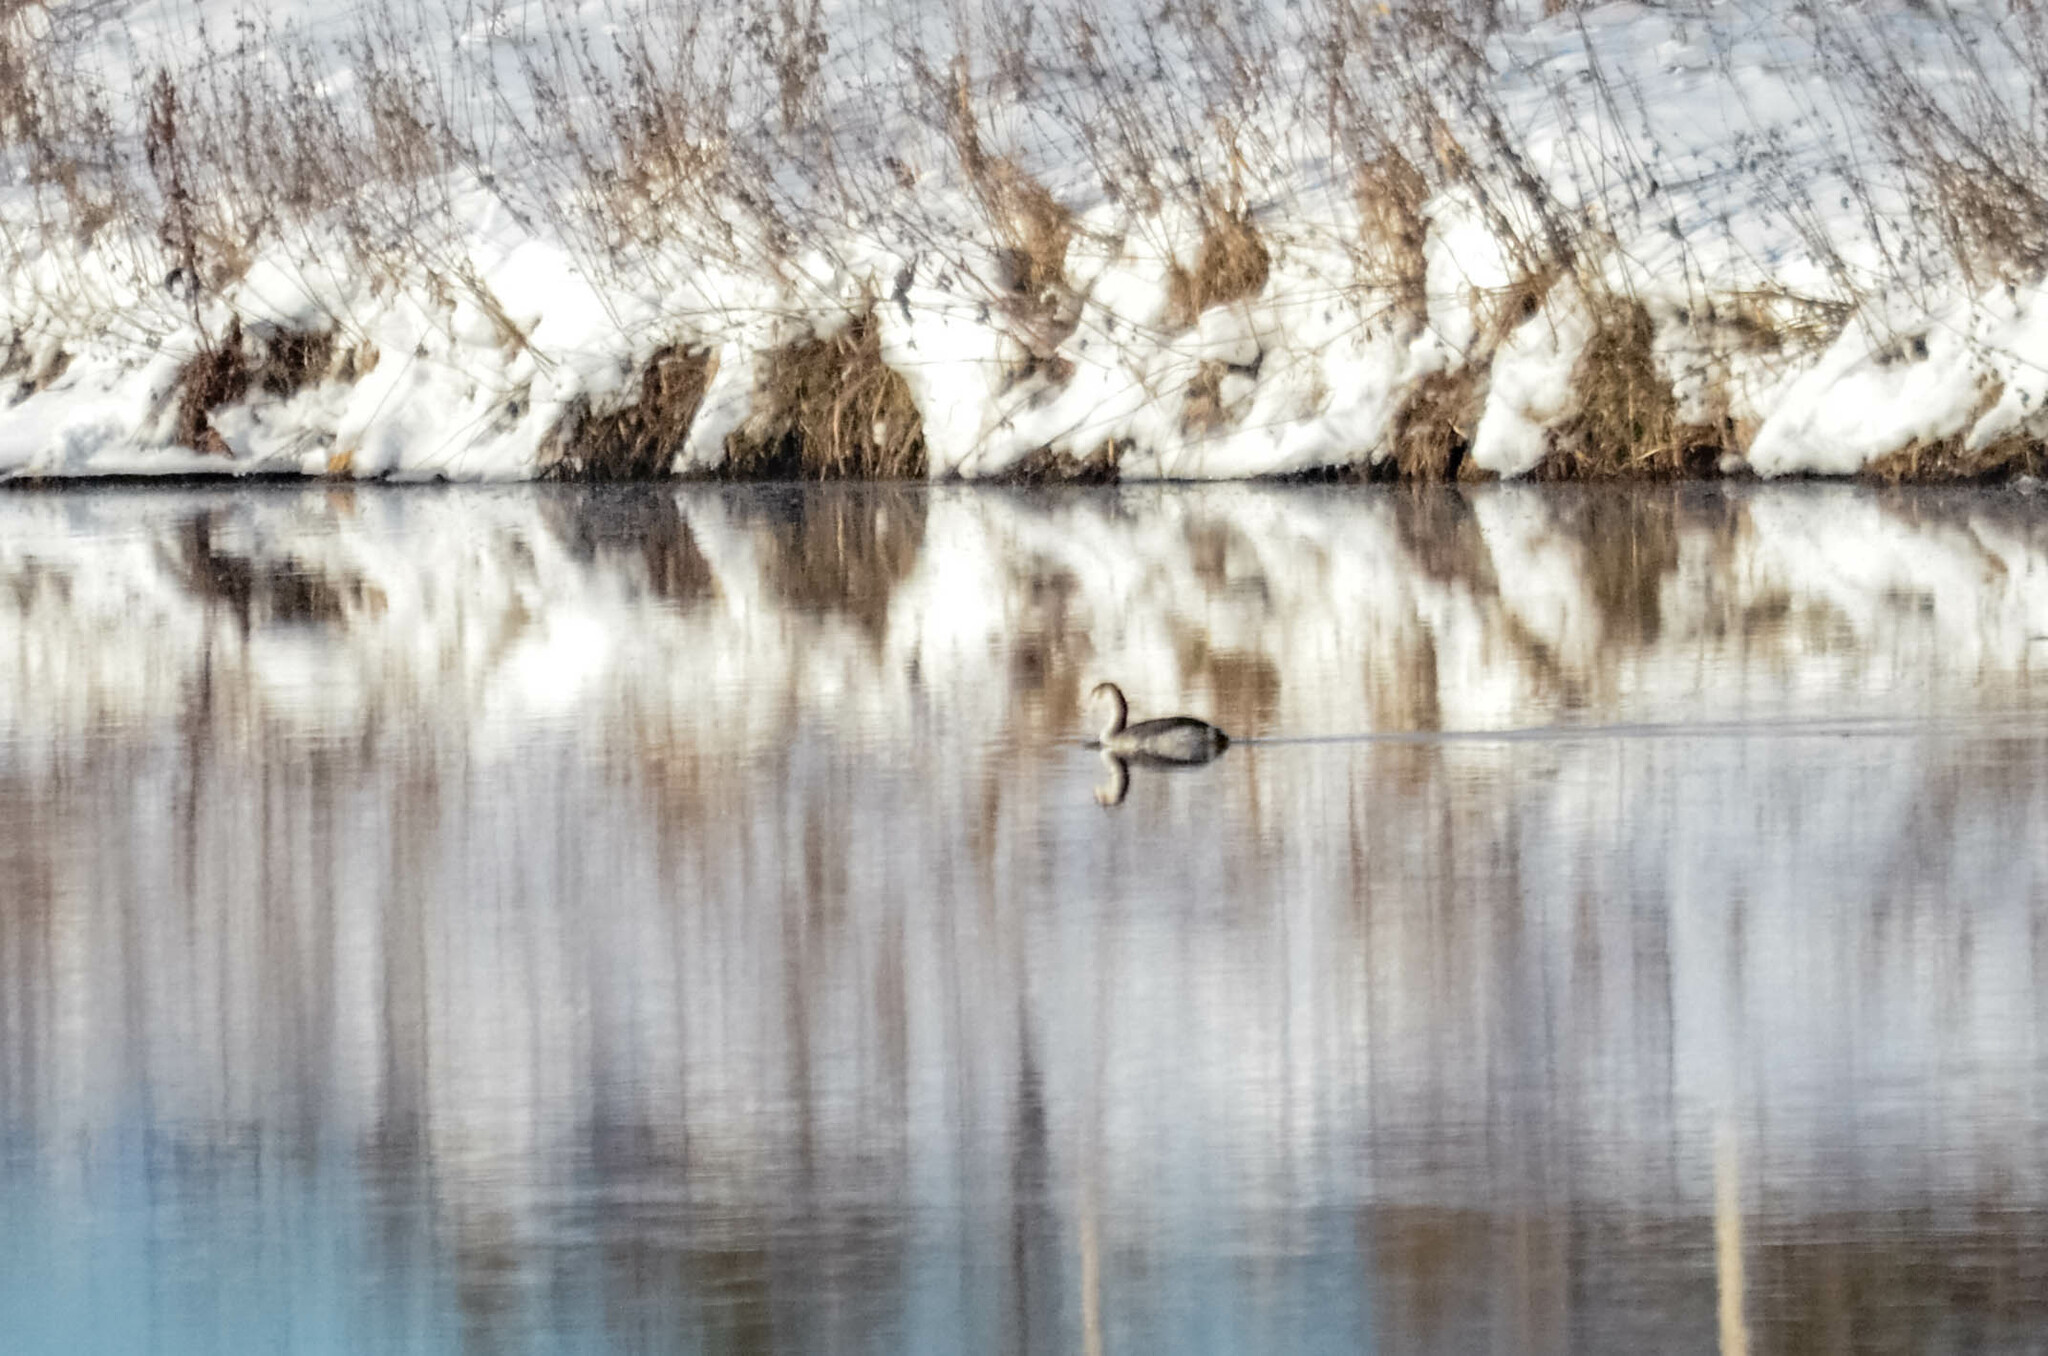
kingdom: Animalia
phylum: Chordata
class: Aves
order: Podicipediformes
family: Podicipedidae
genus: Podiceps
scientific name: Podiceps cristatus
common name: Great crested grebe
